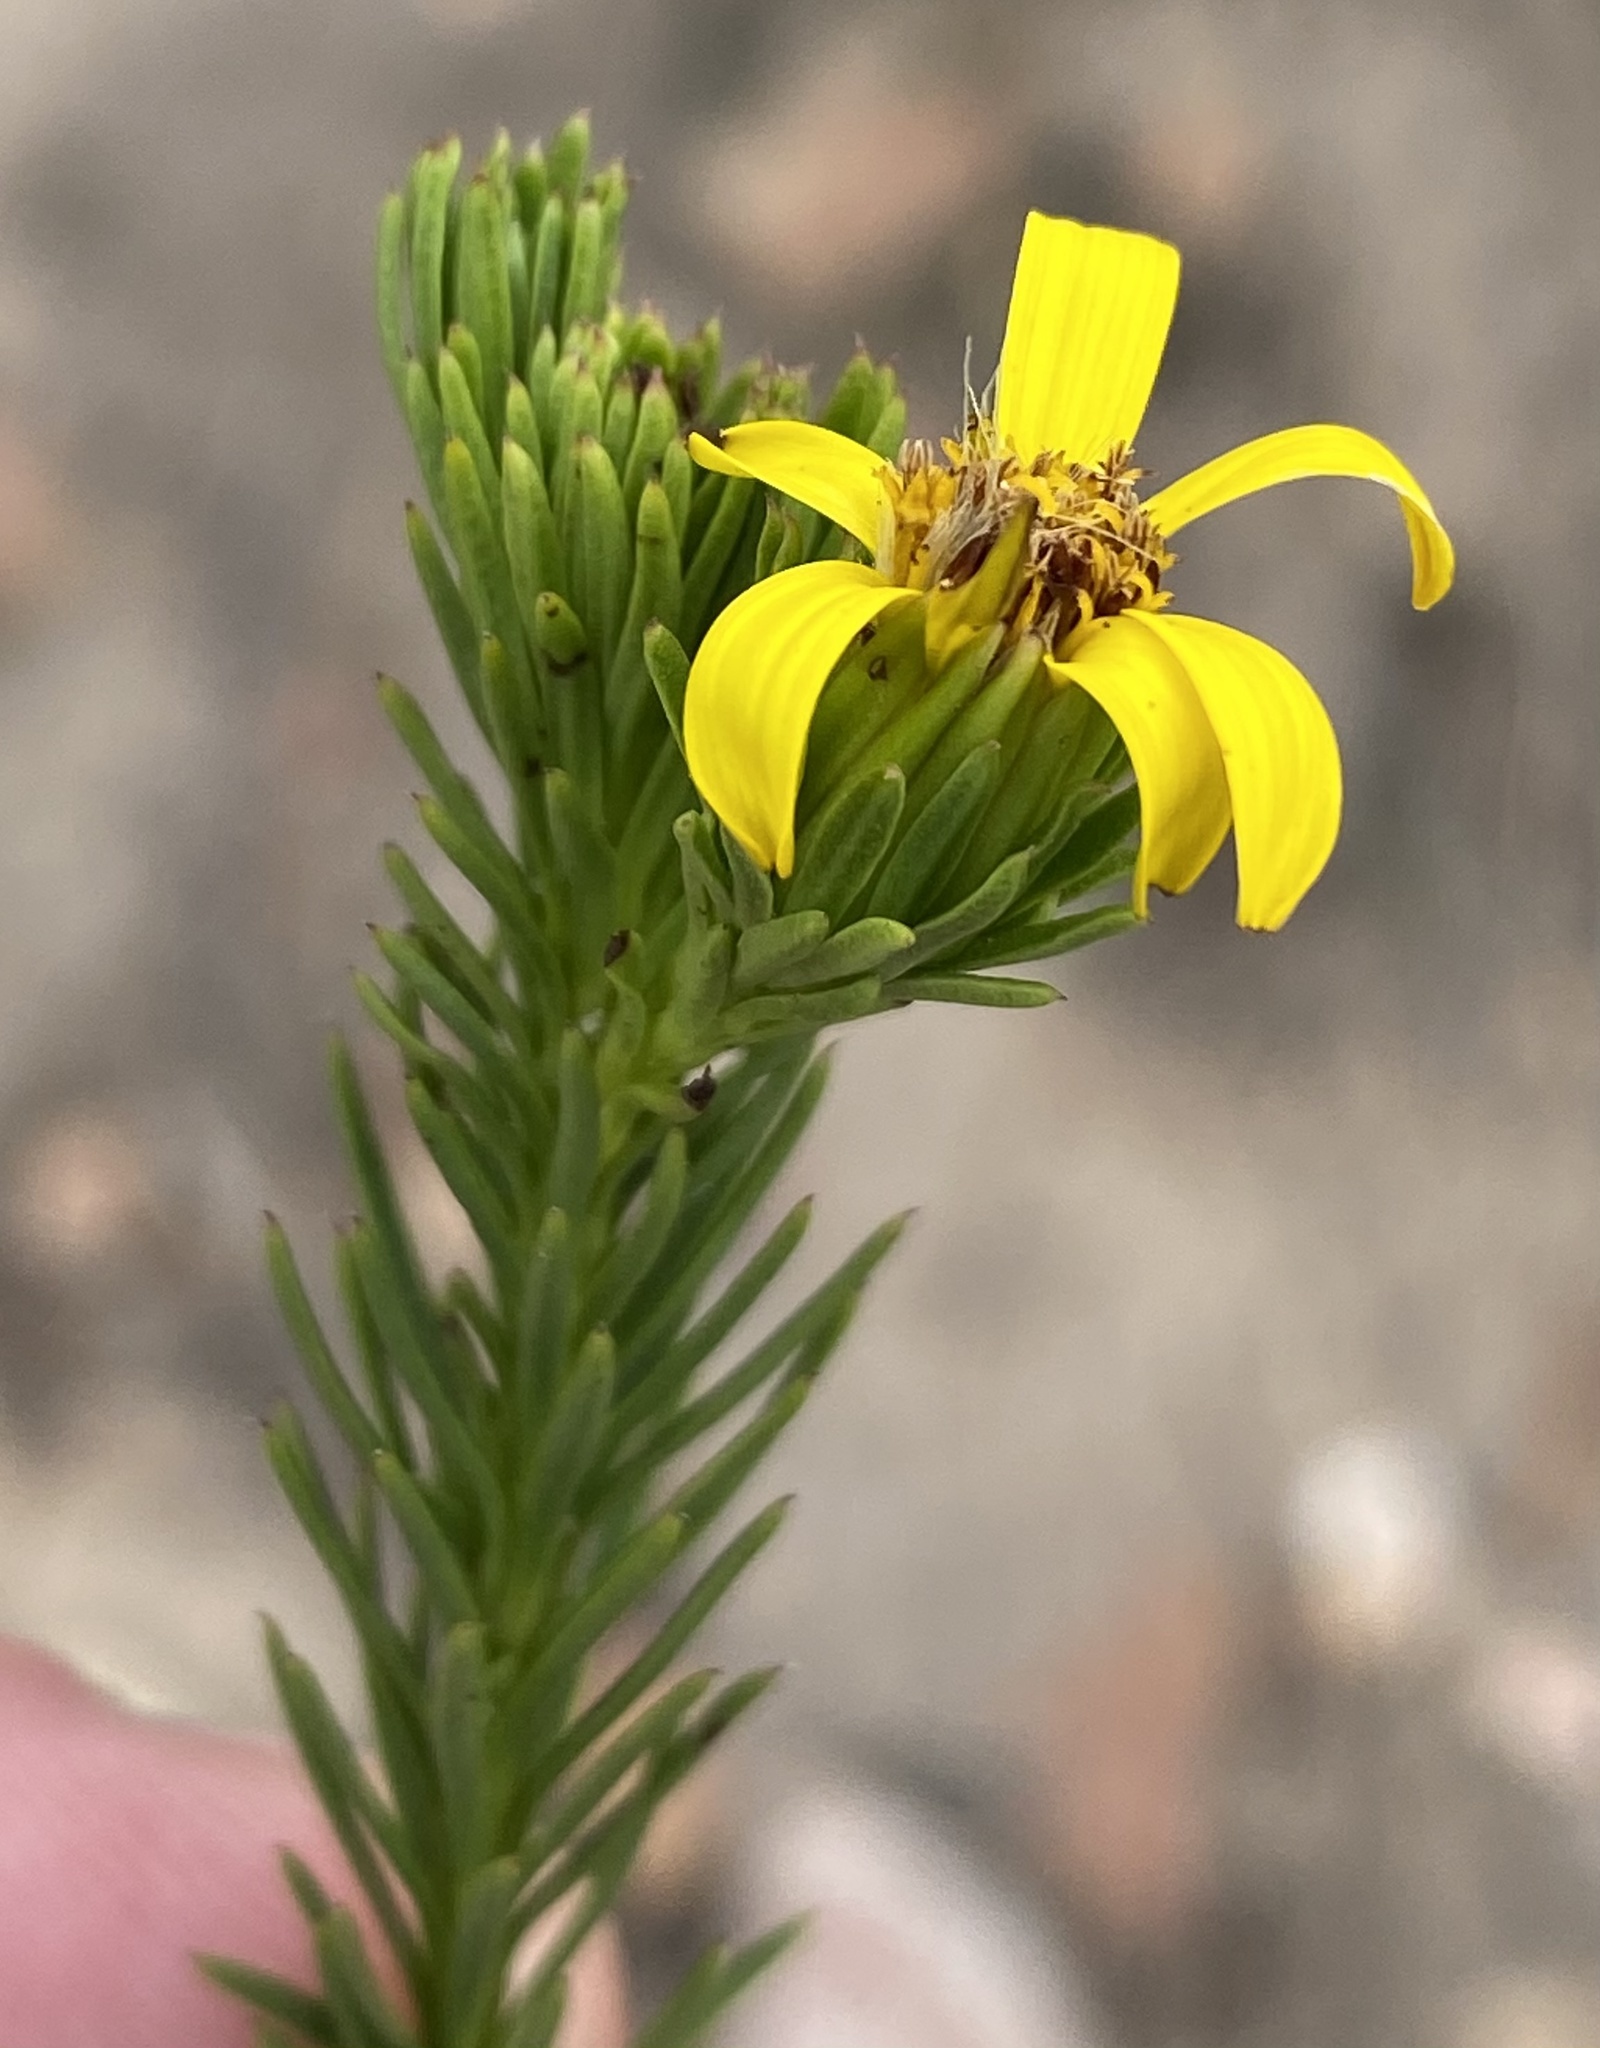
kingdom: Plantae
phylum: Tracheophyta
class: Magnoliopsida
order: Asterales
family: Asteraceae
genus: Senecio
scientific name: Senecio pinifolius
